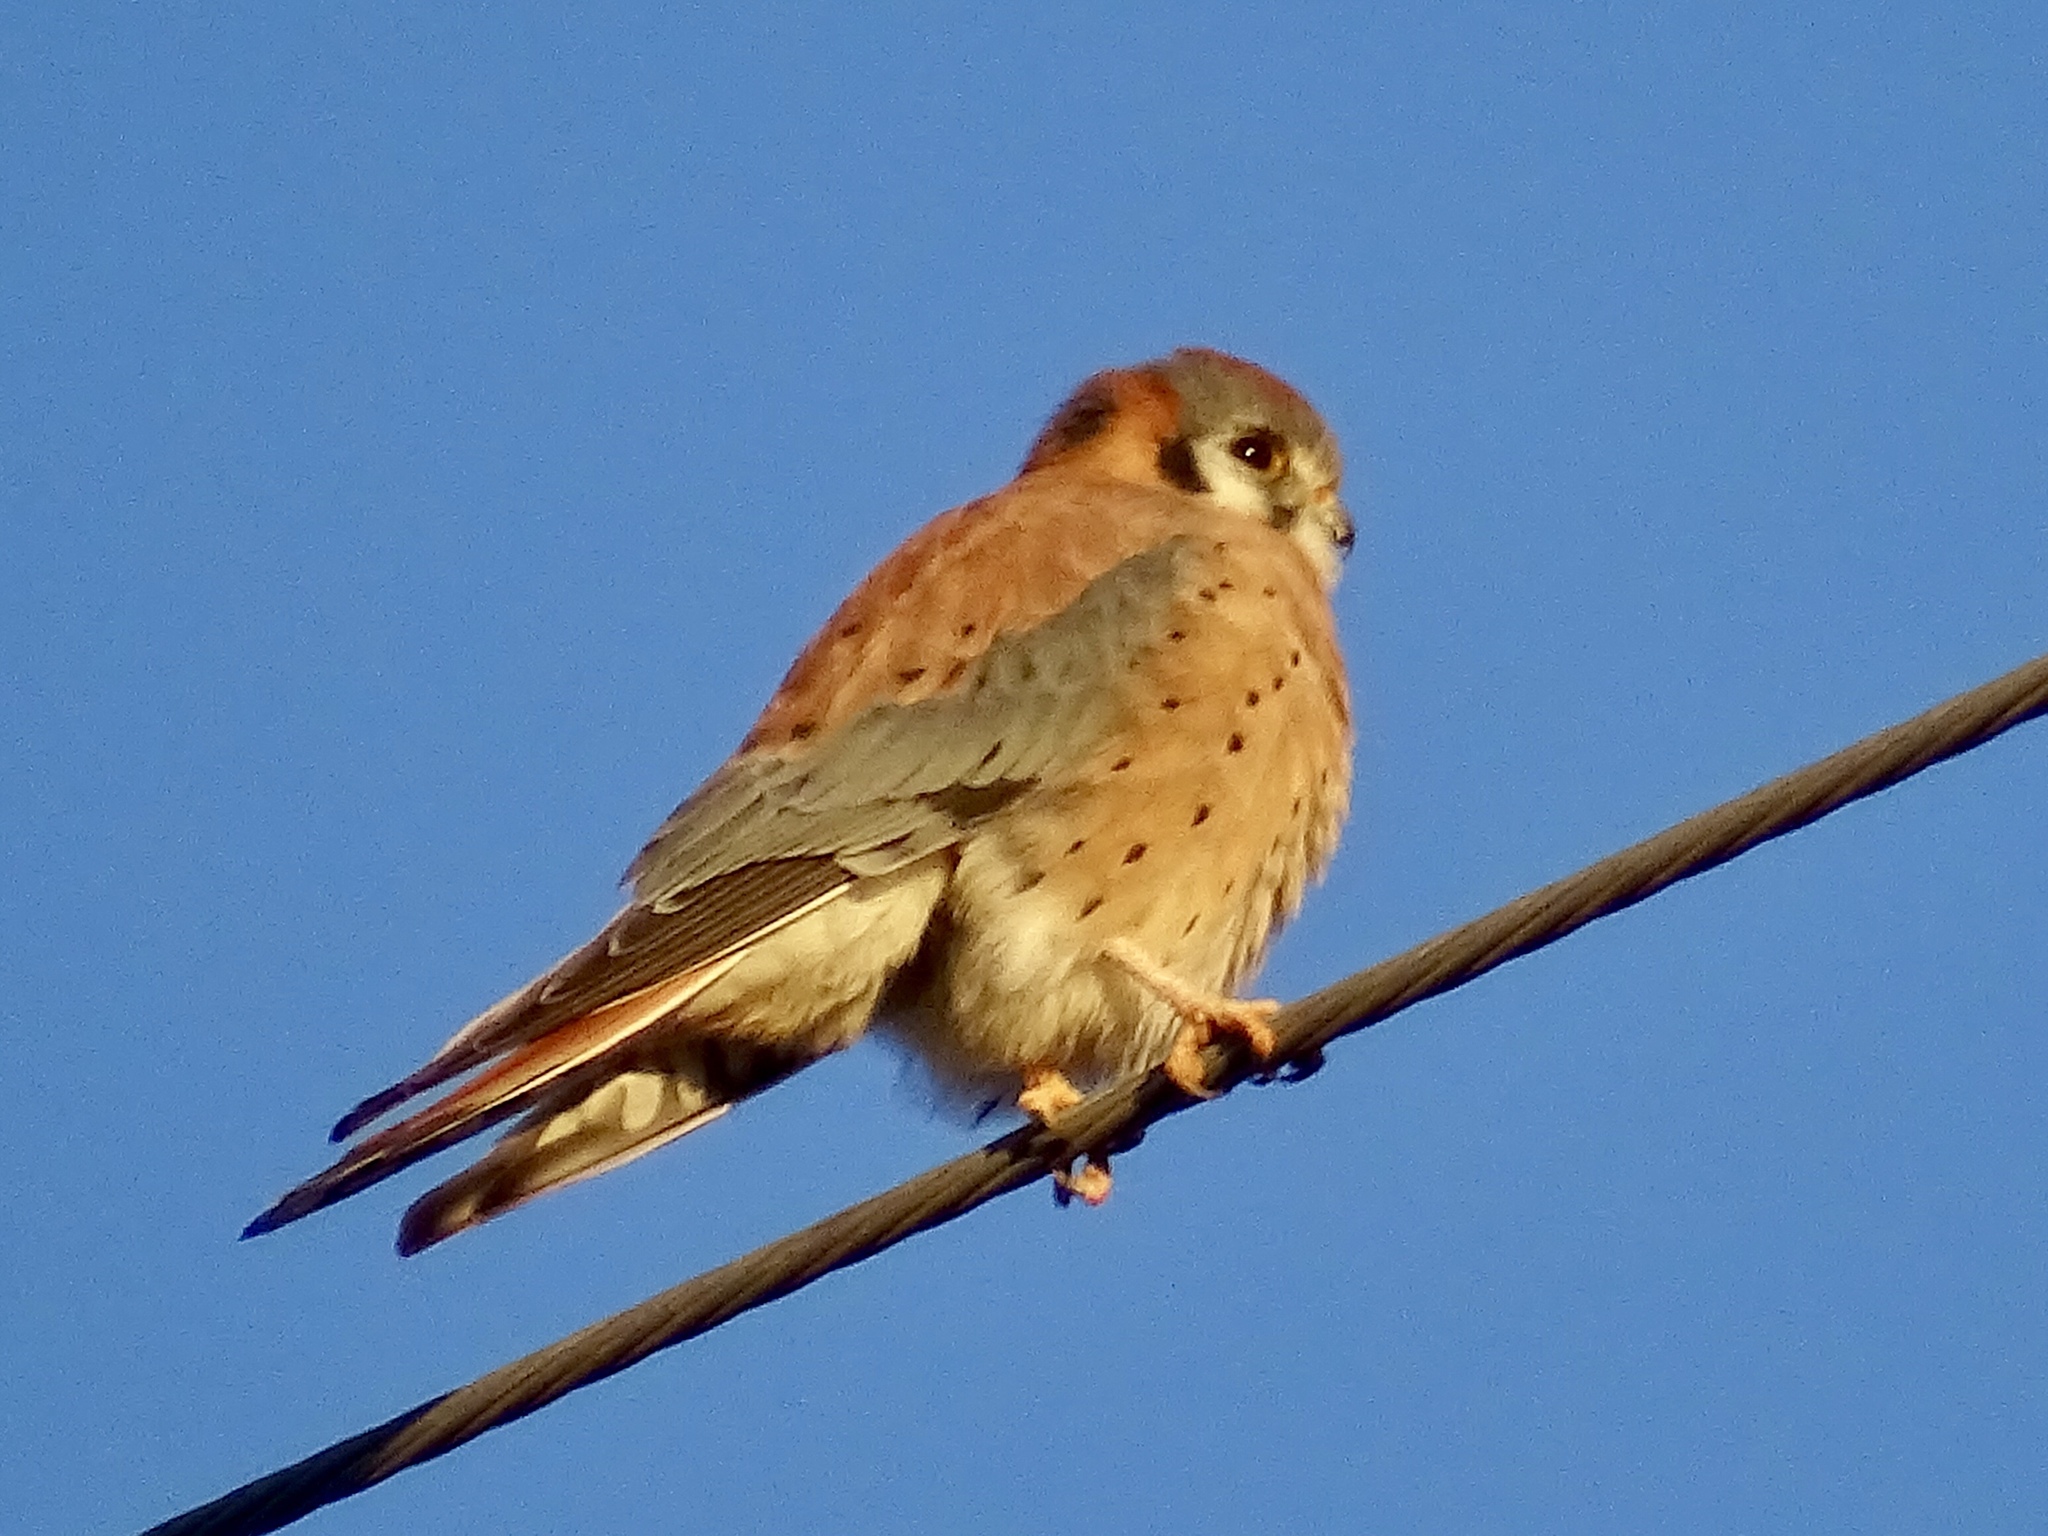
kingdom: Animalia
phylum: Chordata
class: Aves
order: Falconiformes
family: Falconidae
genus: Falco
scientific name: Falco sparverius
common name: American kestrel
